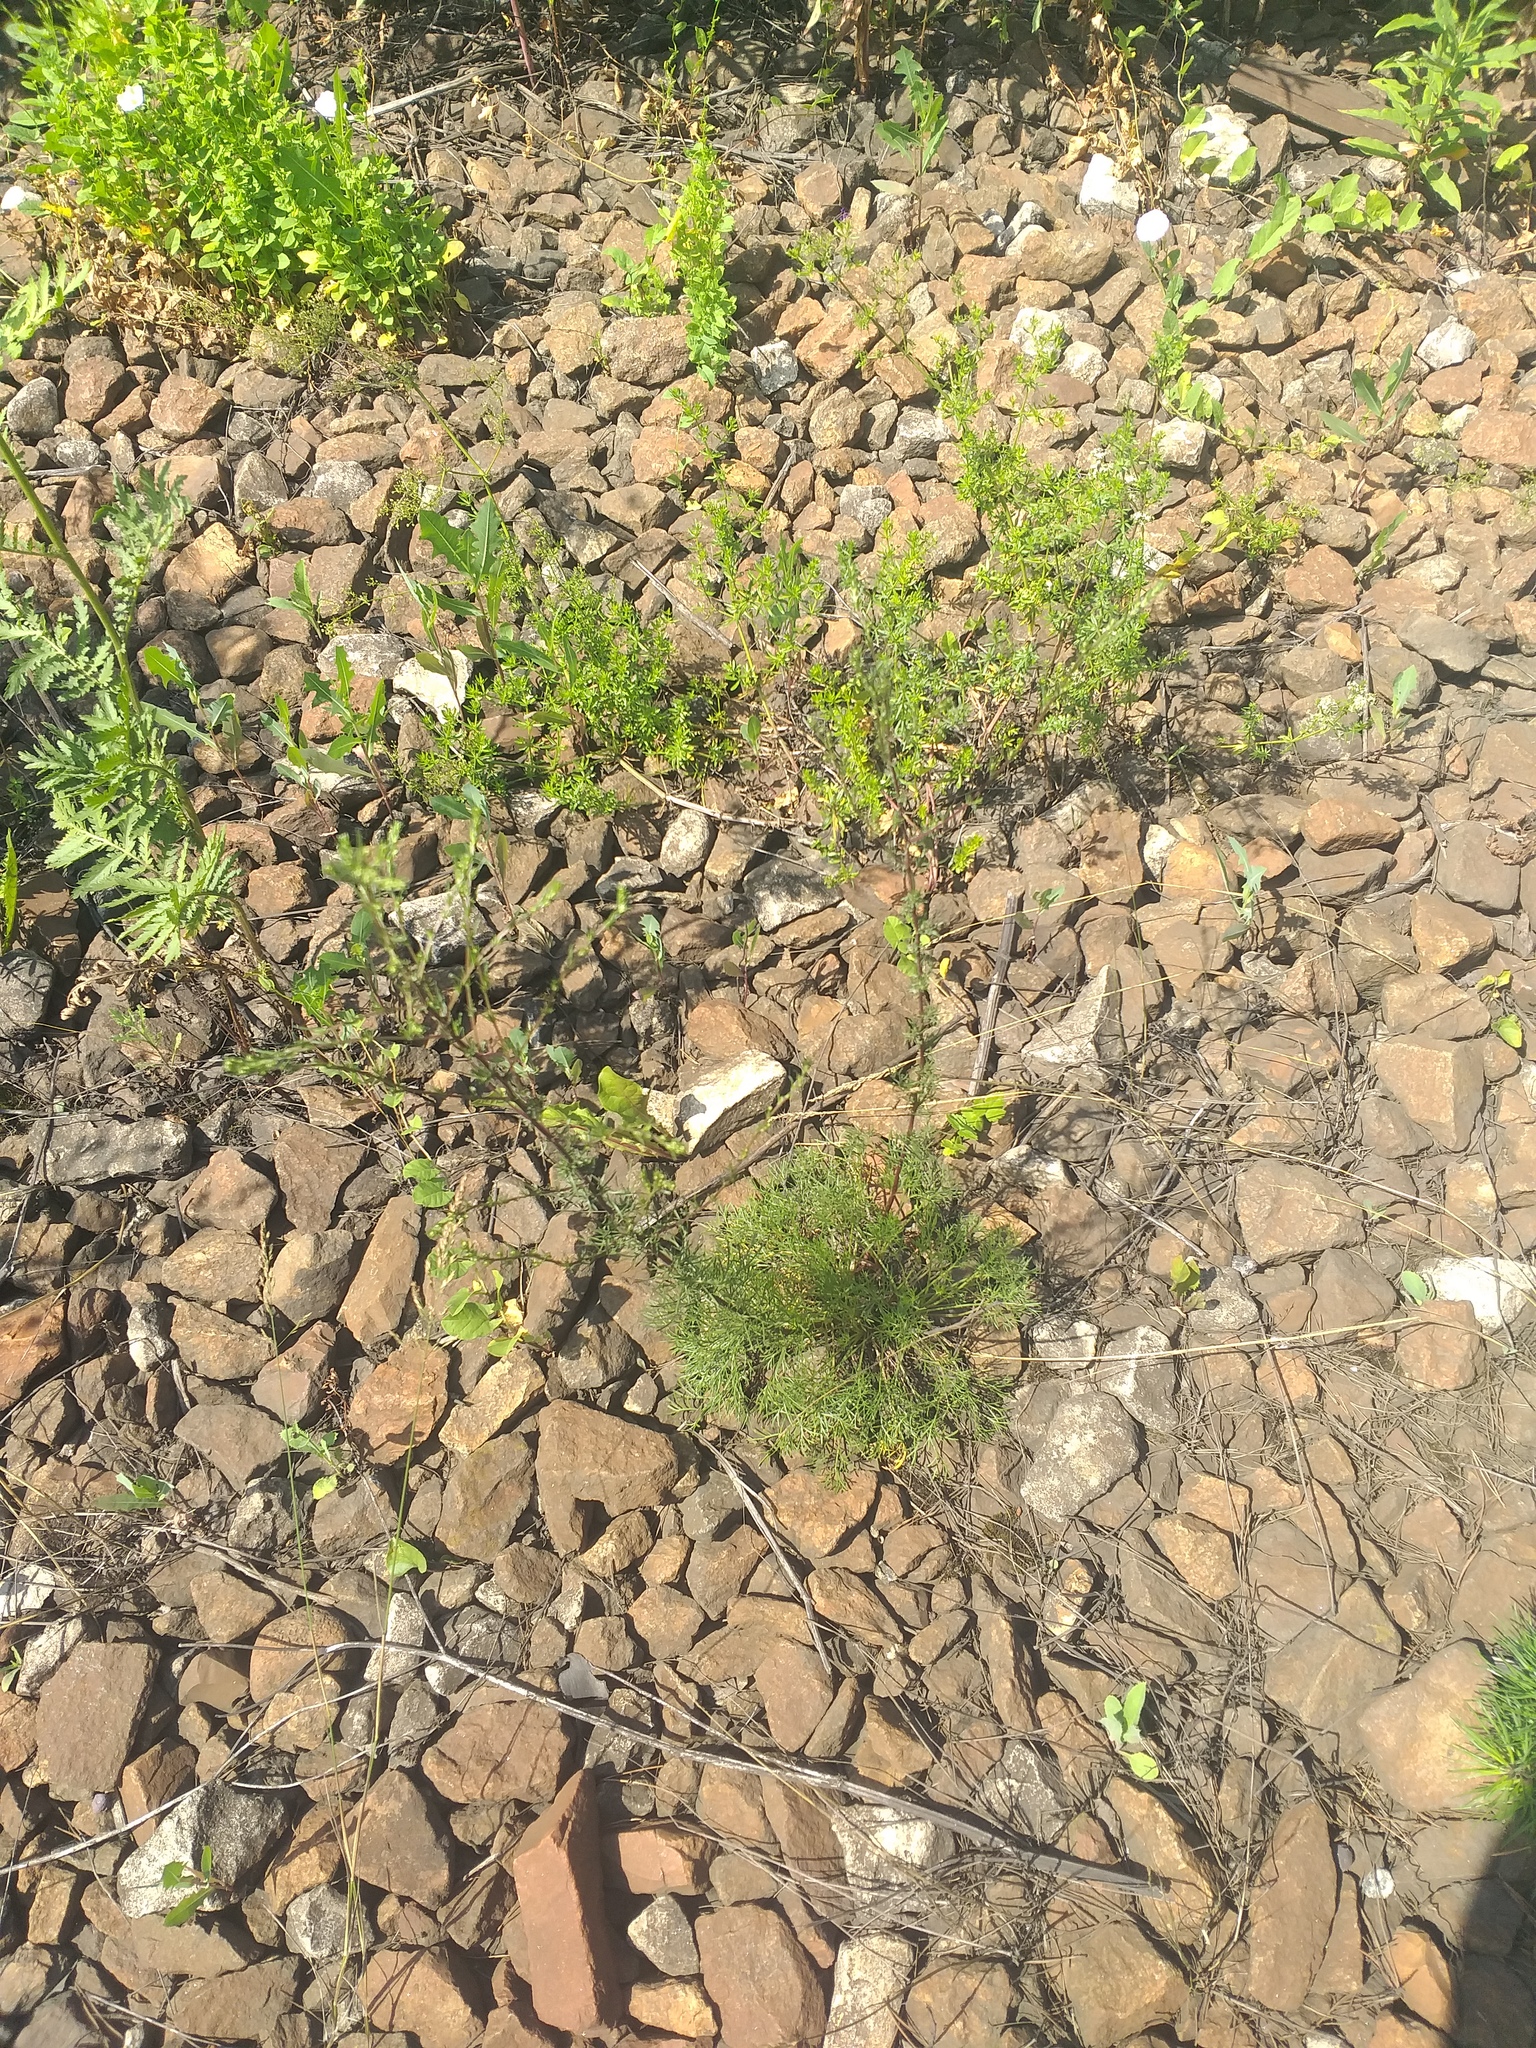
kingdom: Plantae
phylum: Tracheophyta
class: Magnoliopsida
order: Asterales
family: Asteraceae
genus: Artemisia
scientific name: Artemisia campestris
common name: Field wormwood
